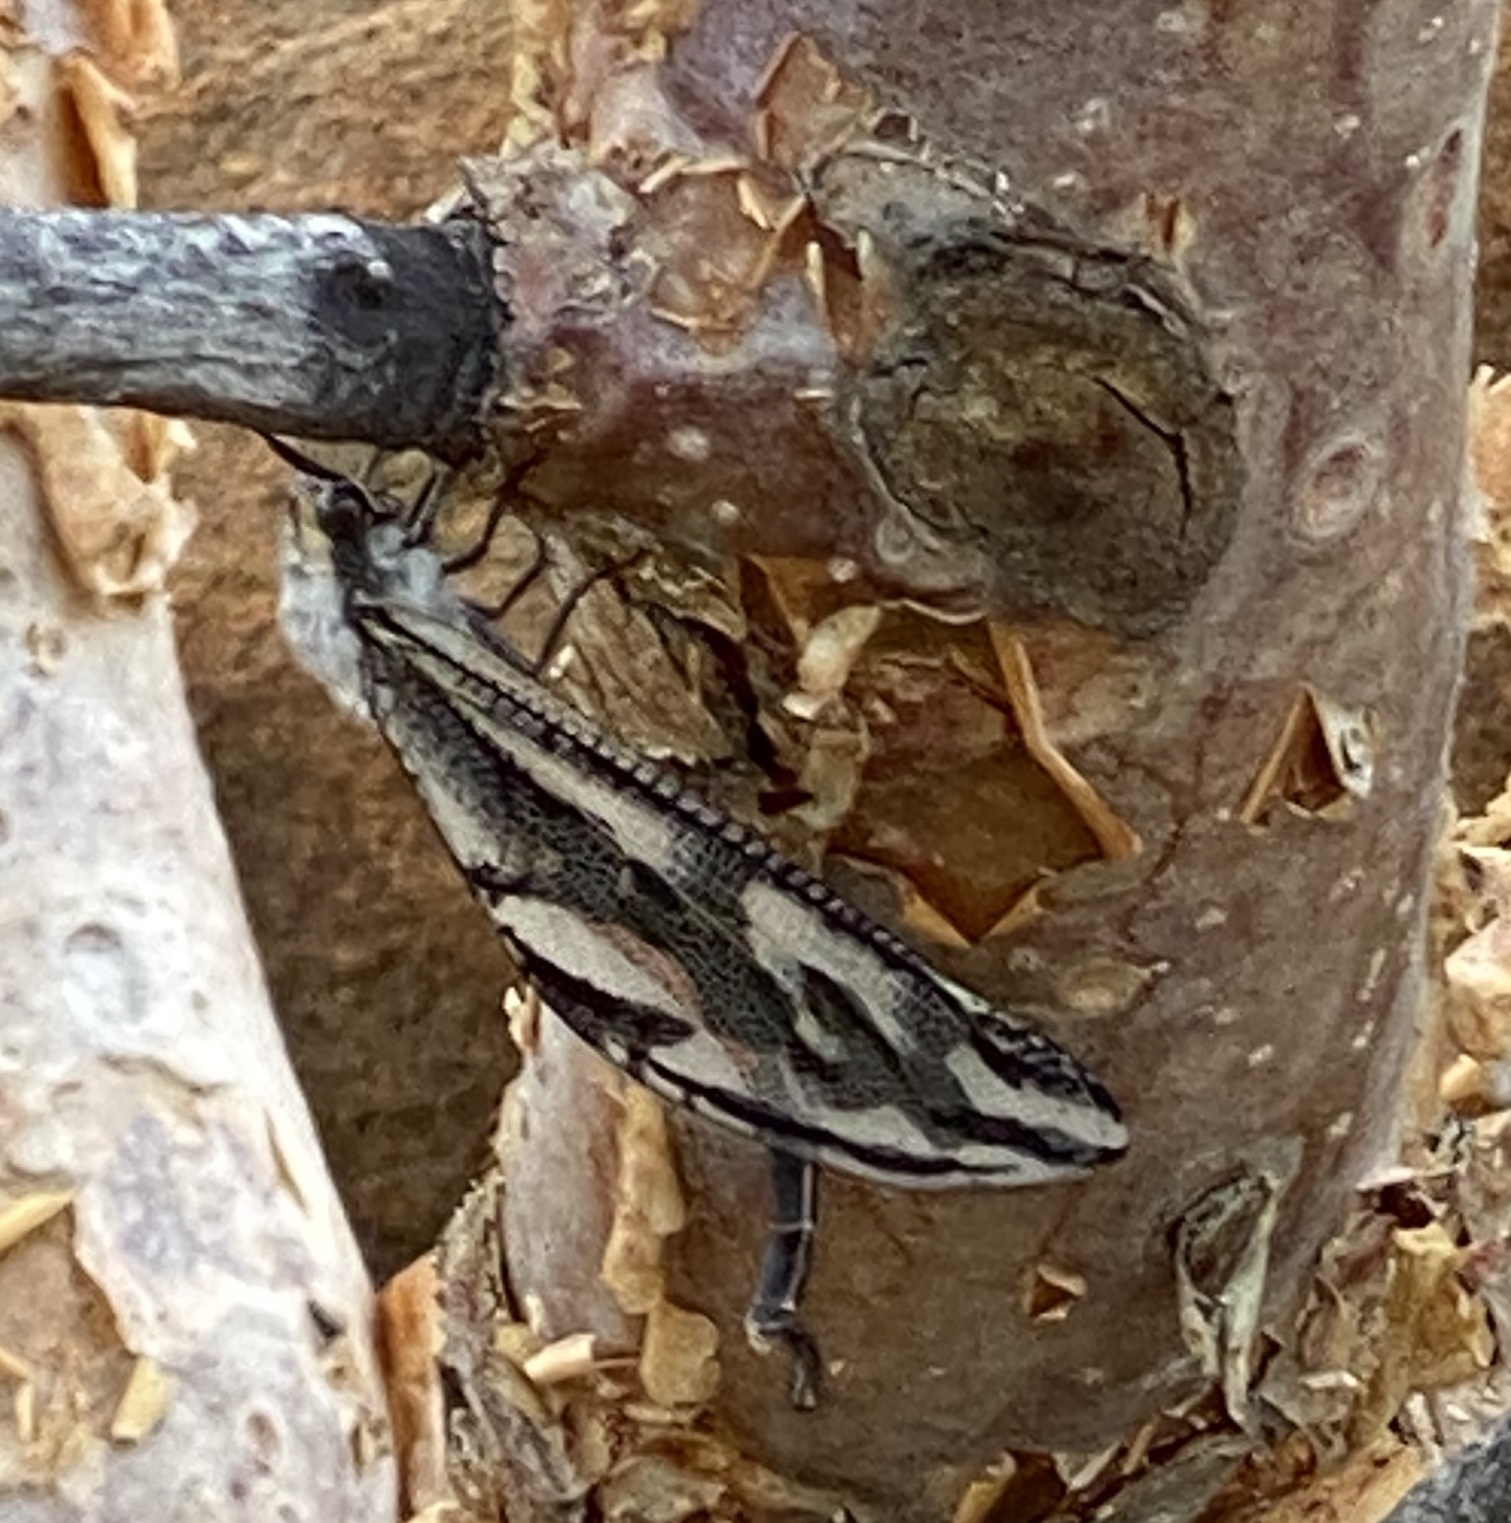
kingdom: Animalia
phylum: Arthropoda
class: Insecta
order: Neuroptera
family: Myrmeleontidae
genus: Palpares
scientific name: Palpares immensus
